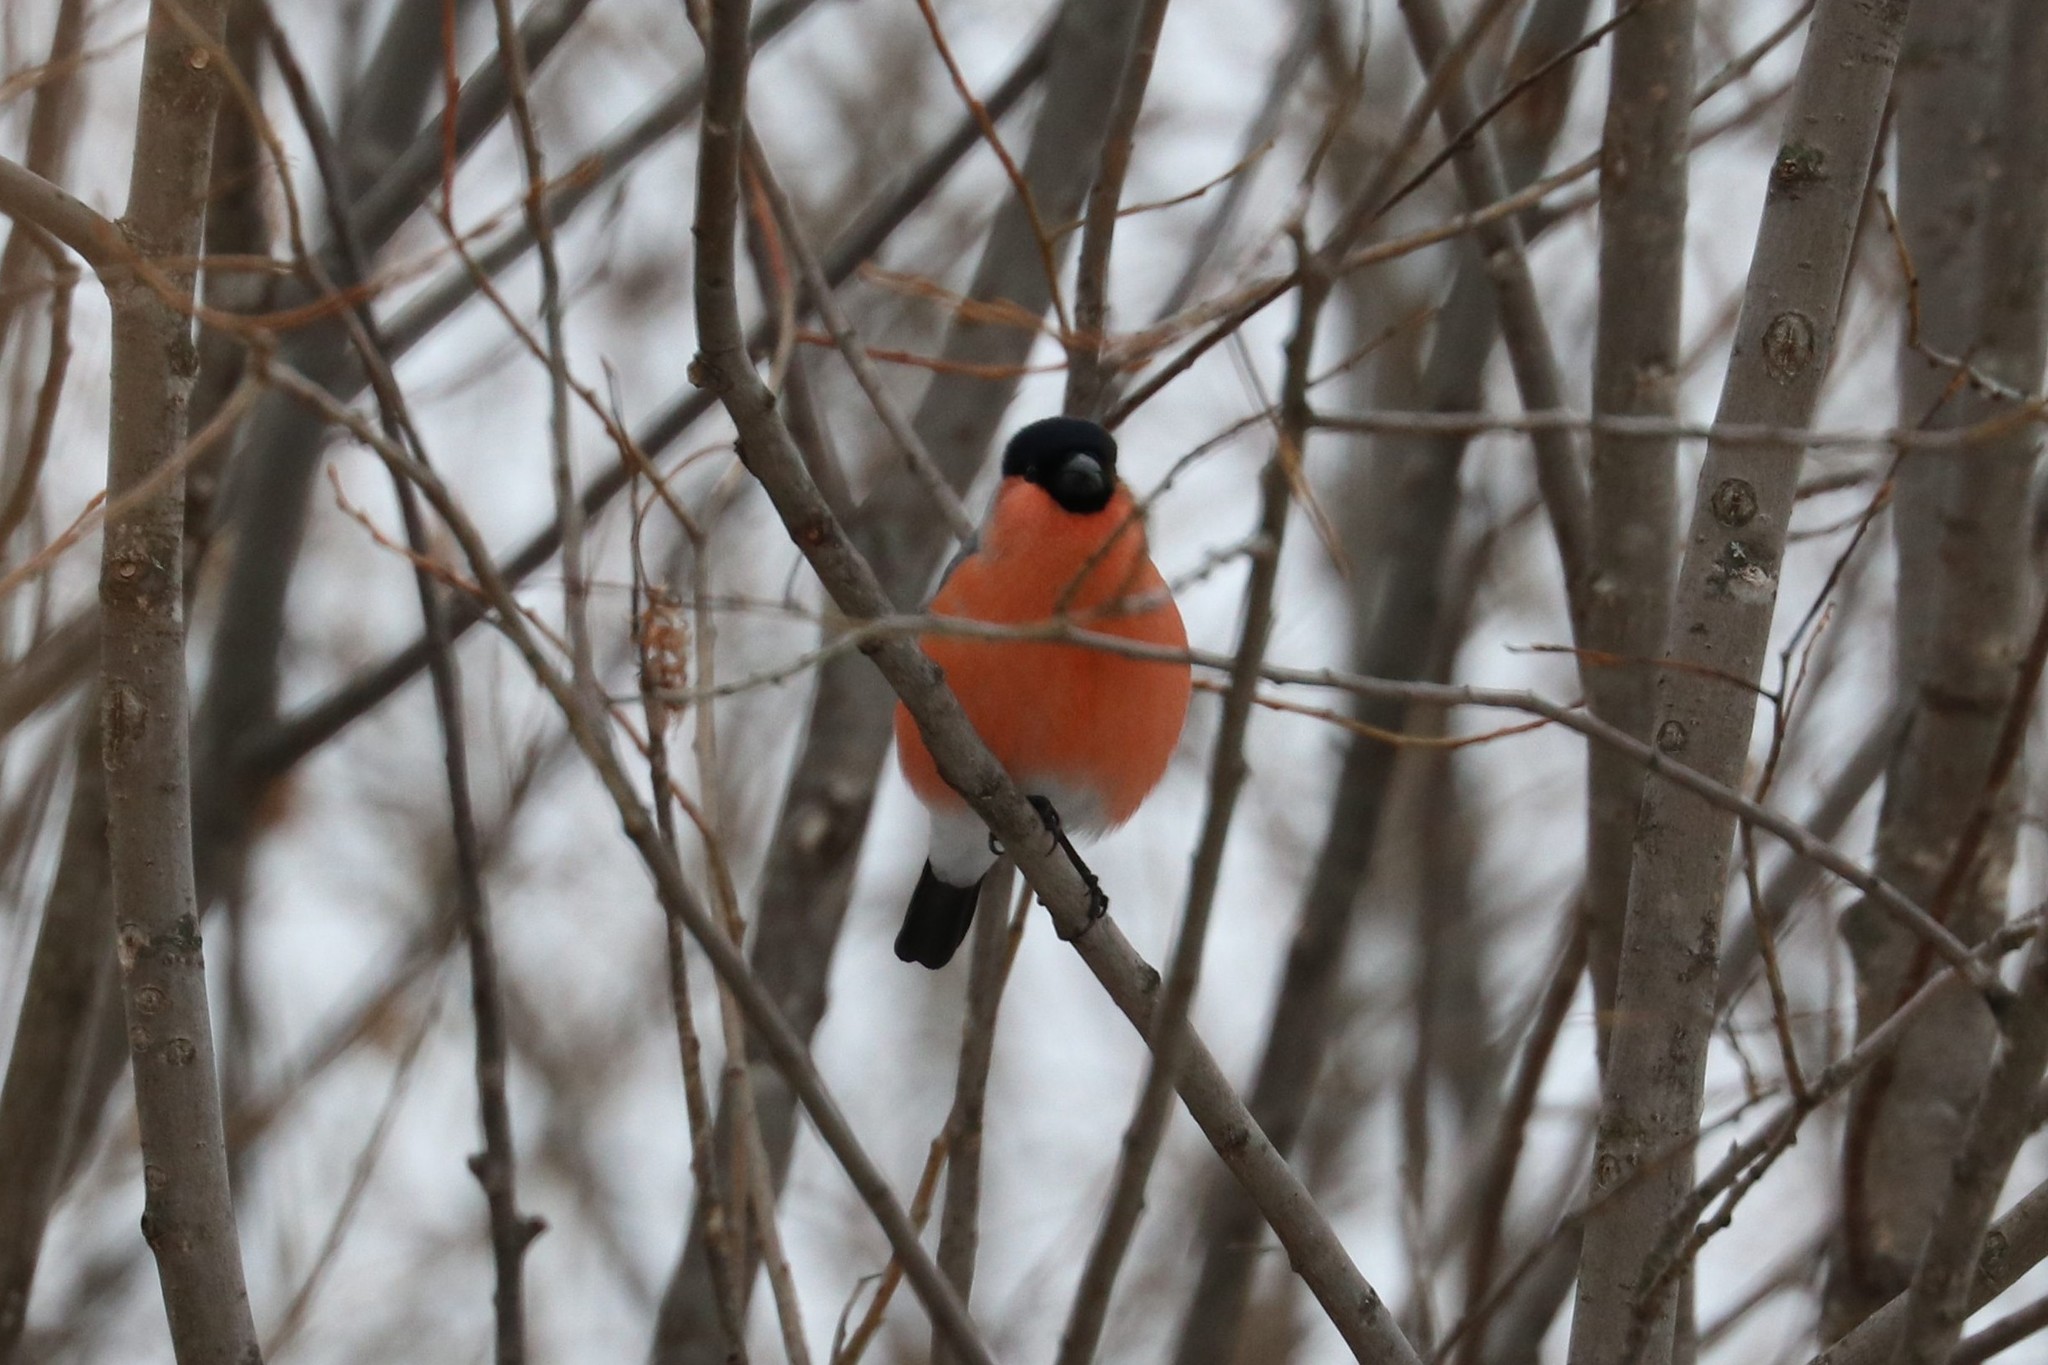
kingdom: Animalia
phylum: Chordata
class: Aves
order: Passeriformes
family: Fringillidae
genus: Pyrrhula
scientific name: Pyrrhula pyrrhula
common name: Eurasian bullfinch
